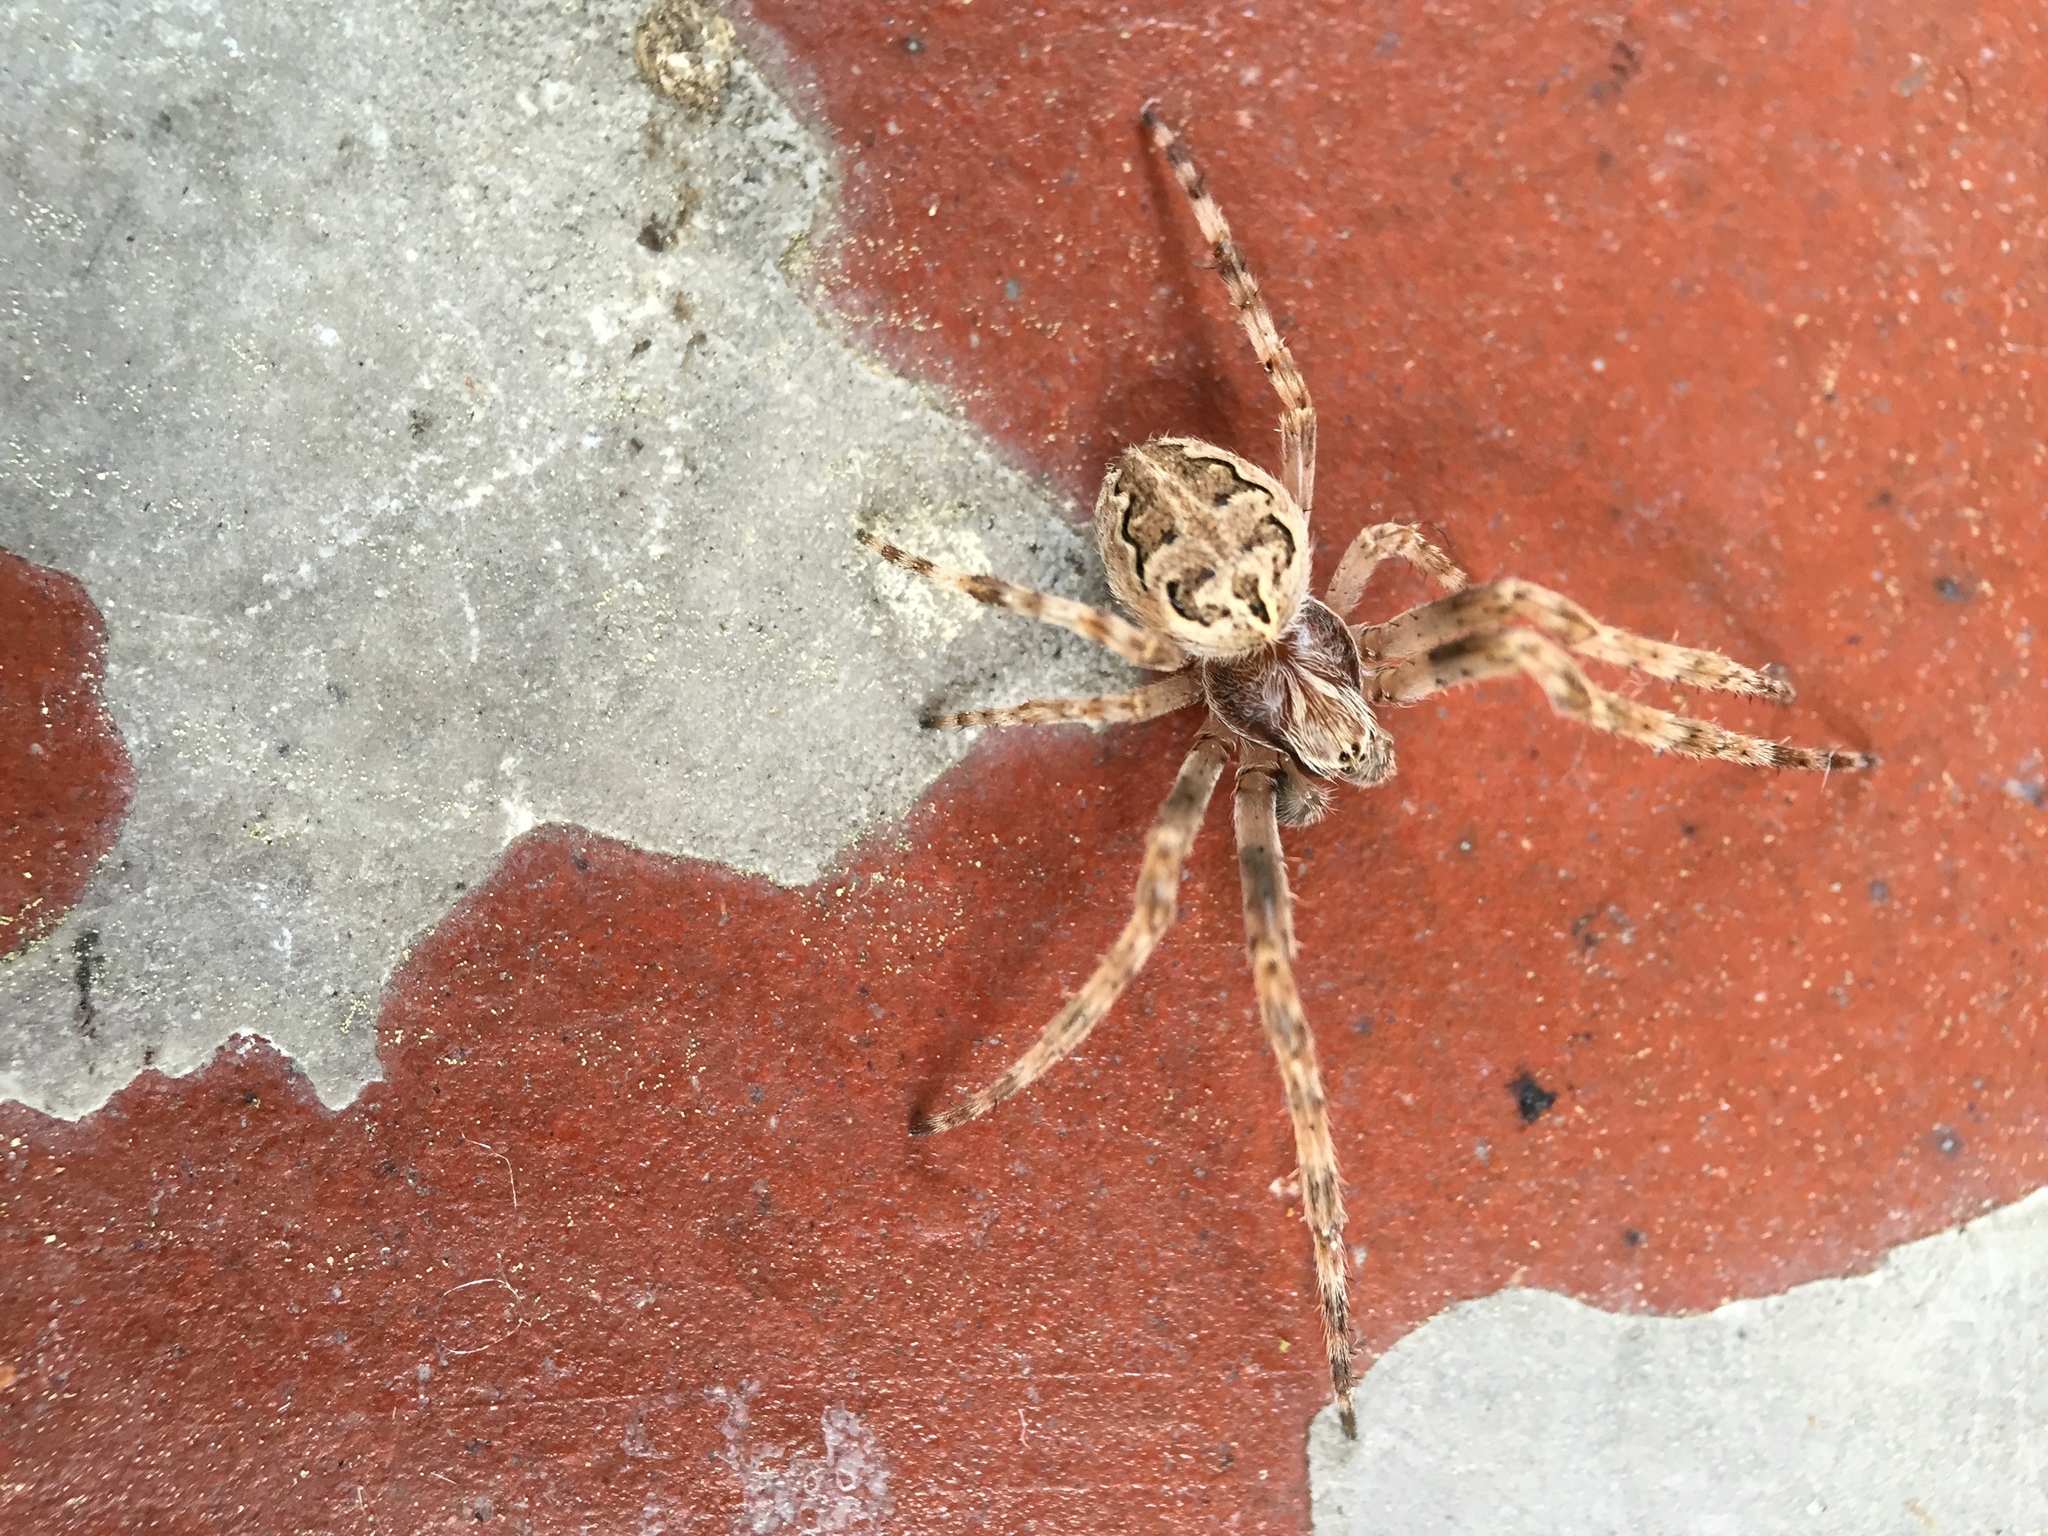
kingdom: Animalia
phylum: Arthropoda
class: Arachnida
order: Araneae
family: Araneidae
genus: Larinioides
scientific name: Larinioides sclopetarius
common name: Bridge orbweaver
